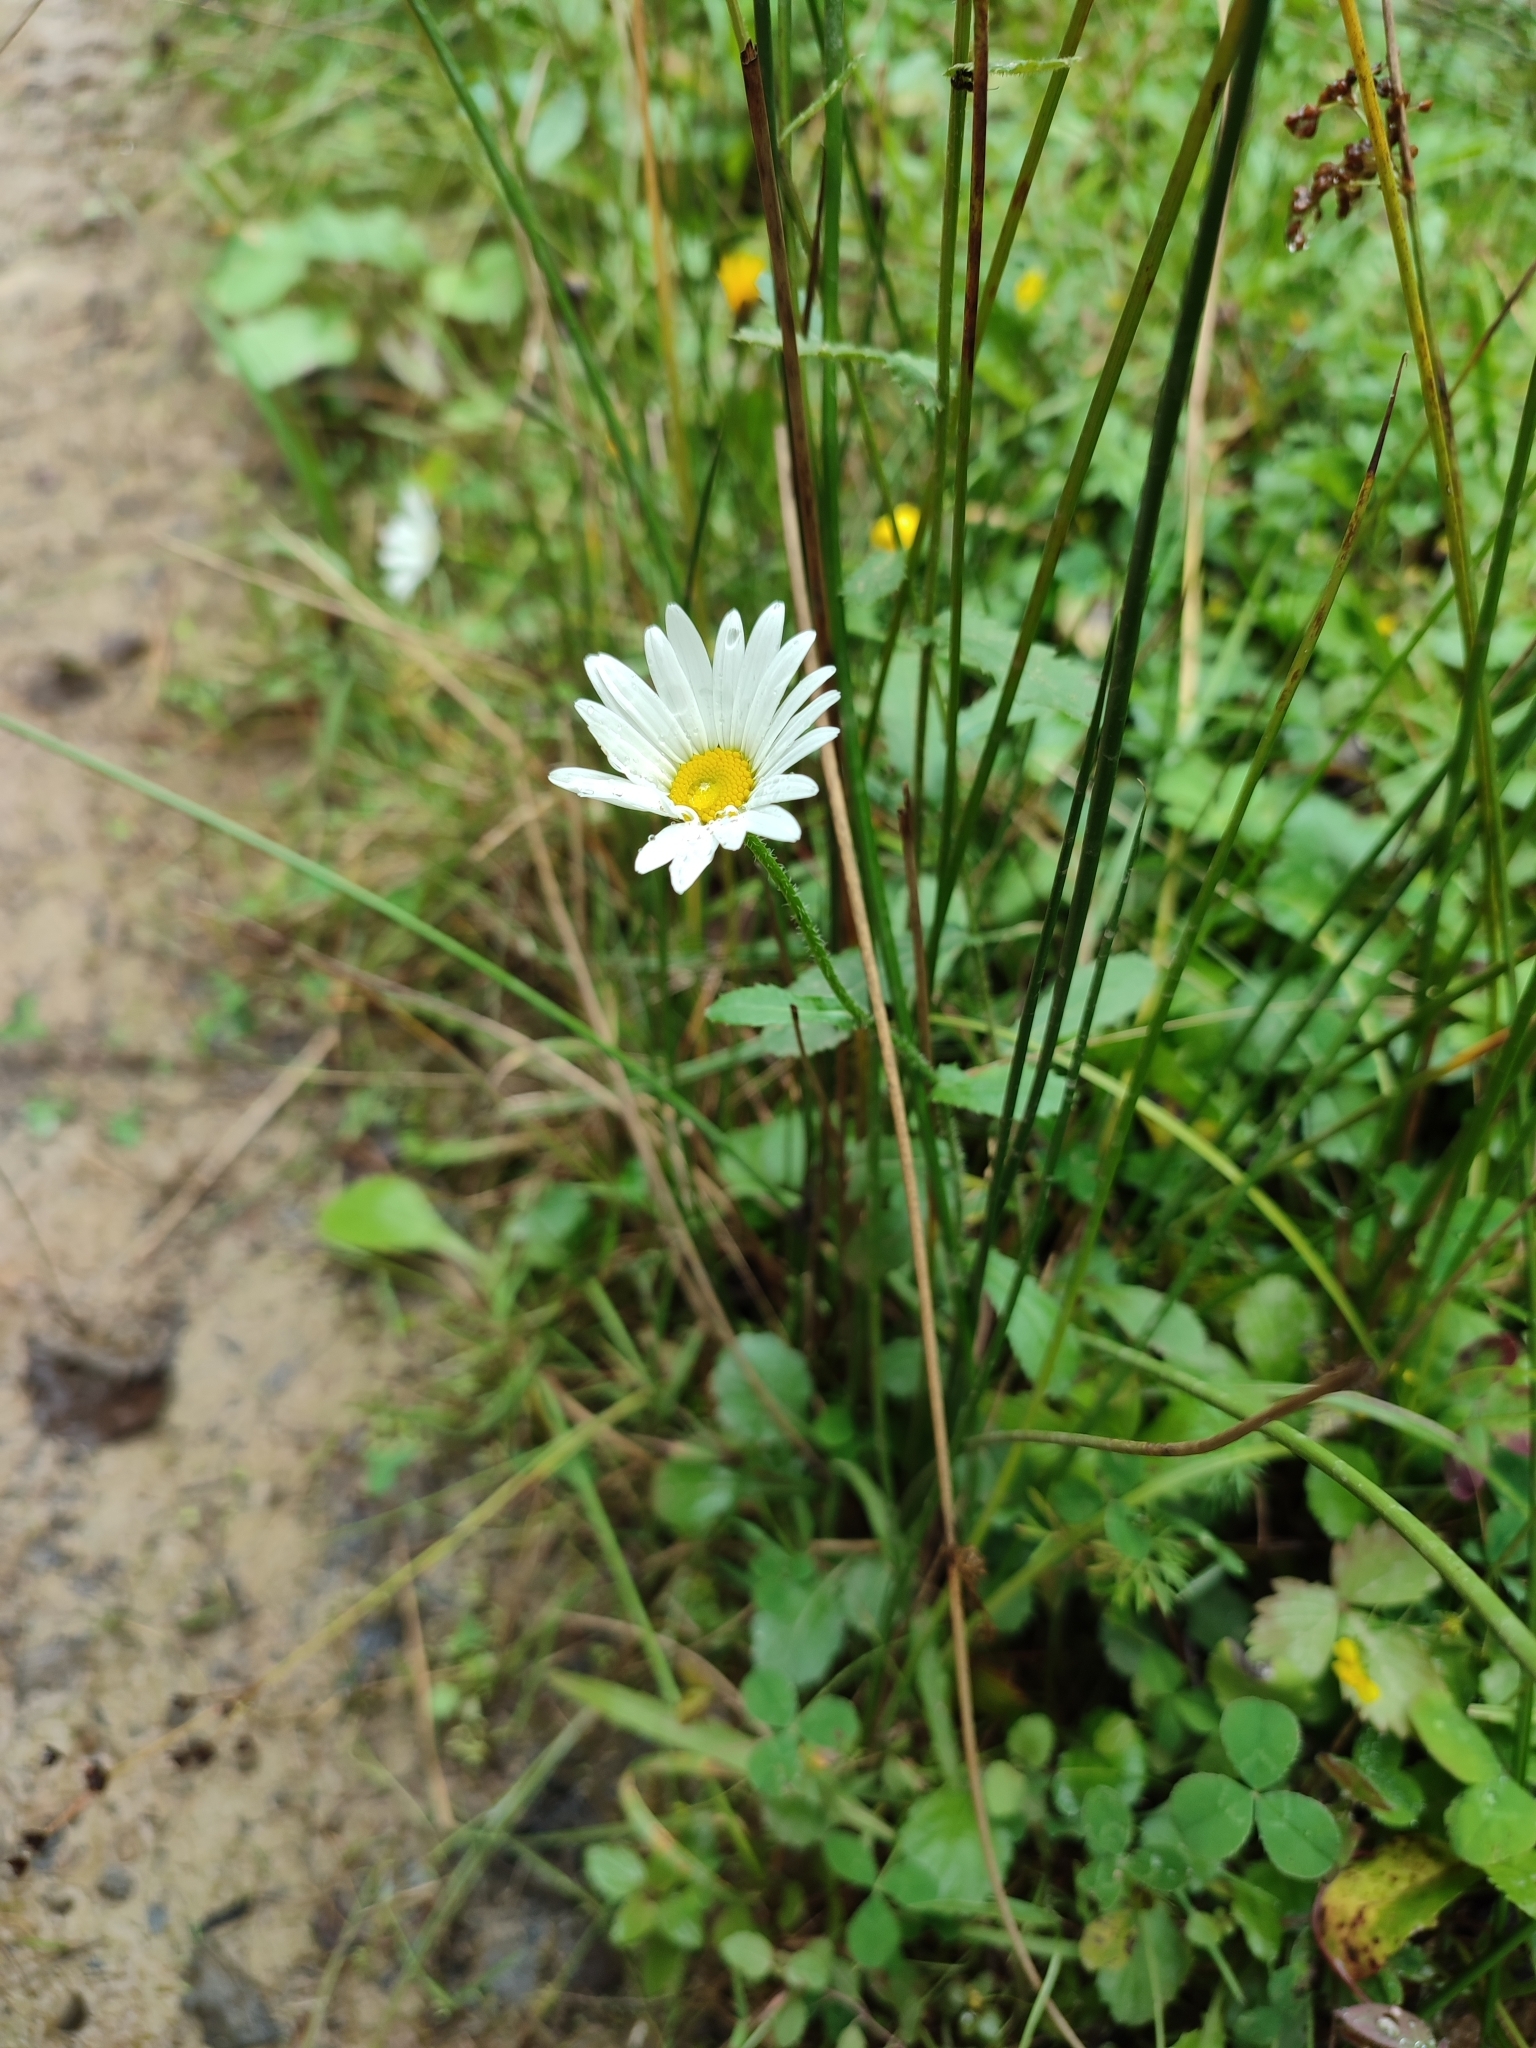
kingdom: Plantae
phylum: Tracheophyta
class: Magnoliopsida
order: Asterales
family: Asteraceae
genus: Leucanthemum
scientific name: Leucanthemum vulgare
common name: Oxeye daisy
